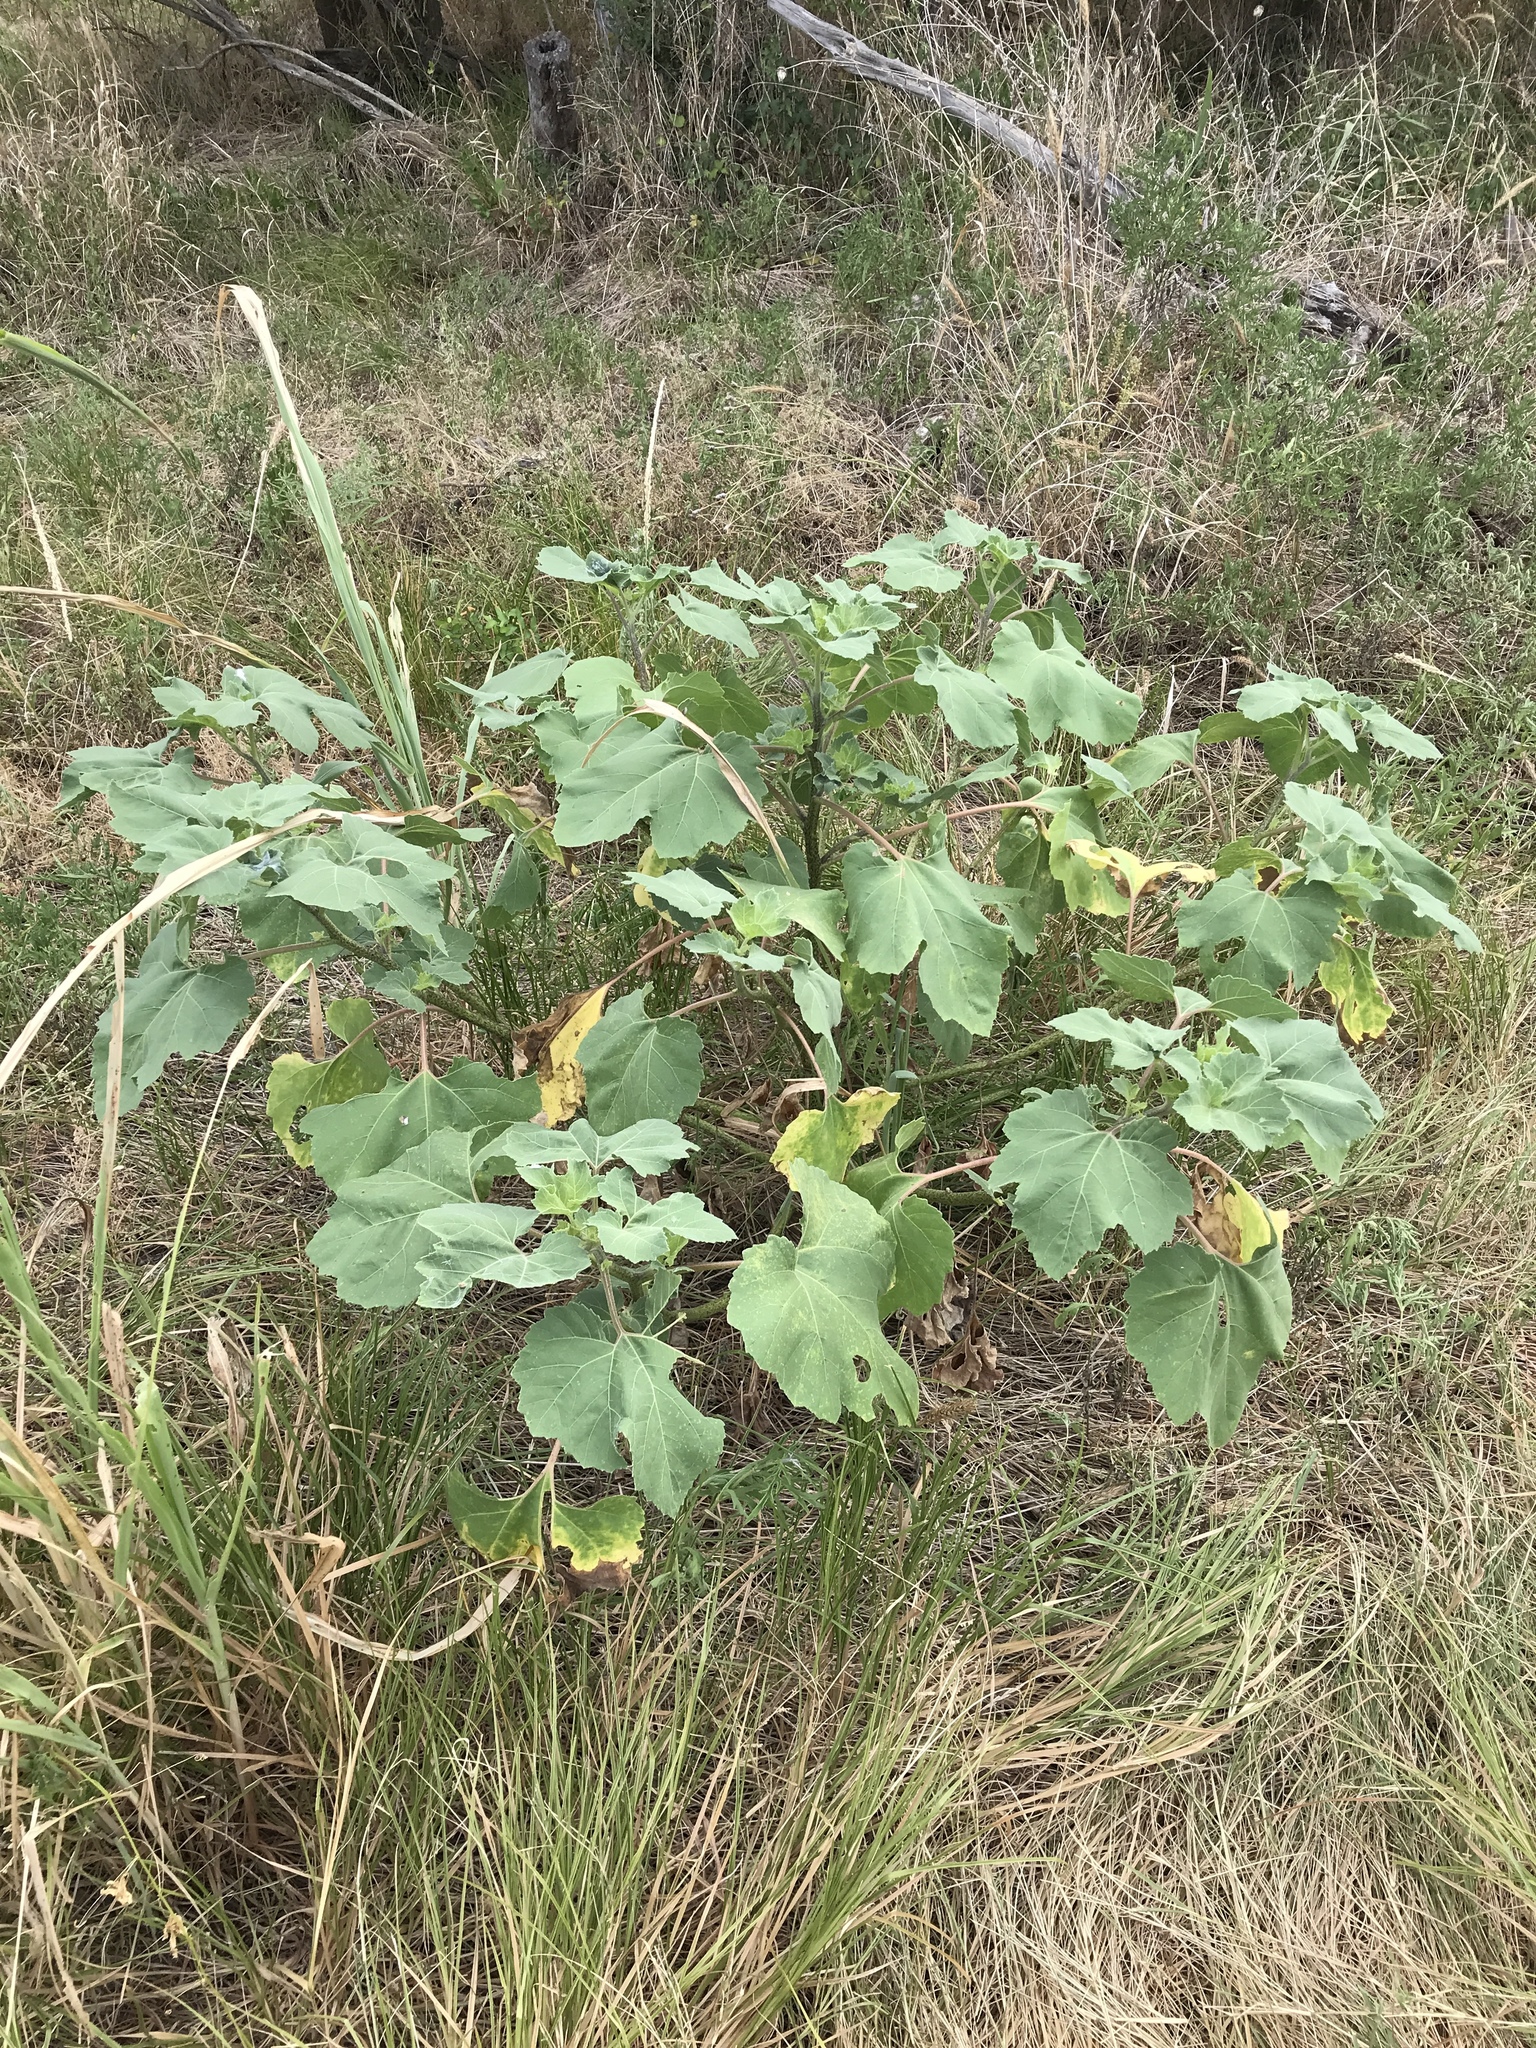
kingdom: Plantae
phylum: Tracheophyta
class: Magnoliopsida
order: Asterales
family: Asteraceae
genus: Xanthium
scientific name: Xanthium strumarium
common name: Rough cocklebur
